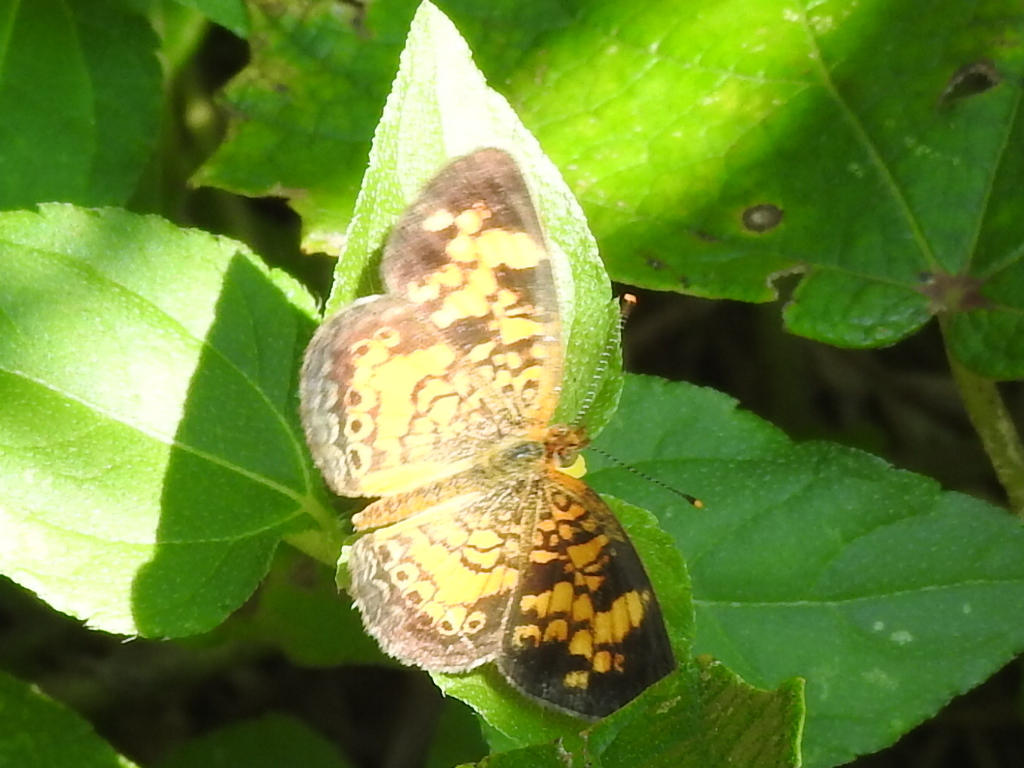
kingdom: Animalia
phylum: Arthropoda
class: Insecta
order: Lepidoptera
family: Nymphalidae
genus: Phyciodes
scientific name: Phyciodes tharos
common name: Pearl crescent
